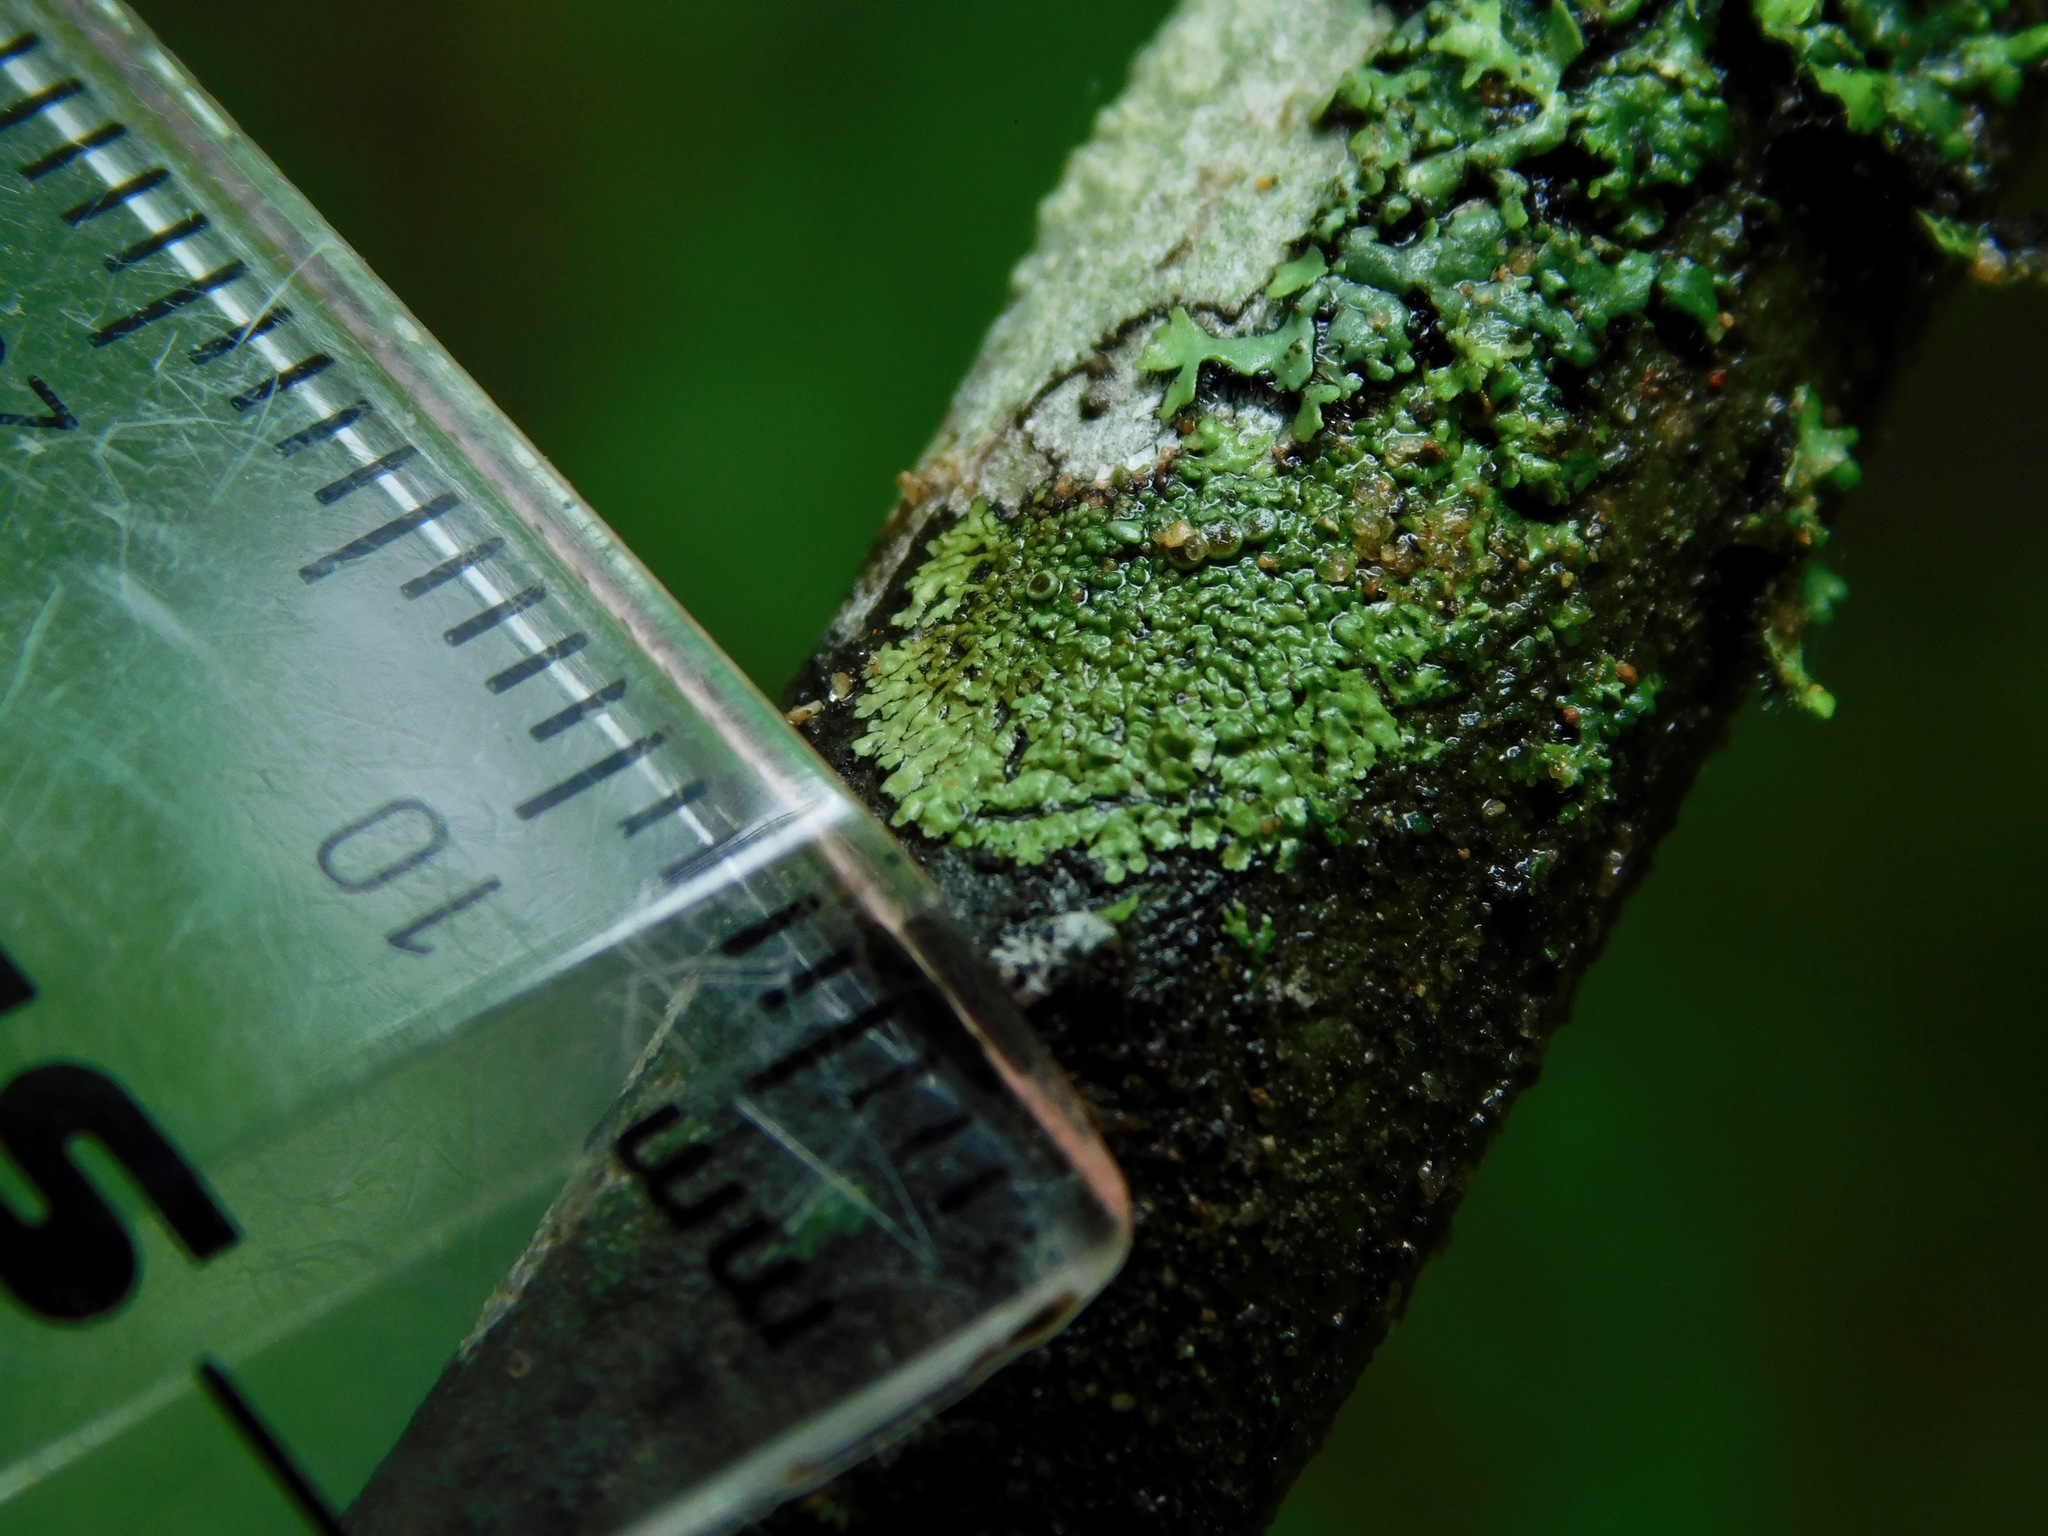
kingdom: Fungi
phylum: Ascomycota
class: Lecanoromycetes
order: Caliciales
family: Physciaceae
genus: Hyperphyscia
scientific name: Hyperphyscia syncolla
